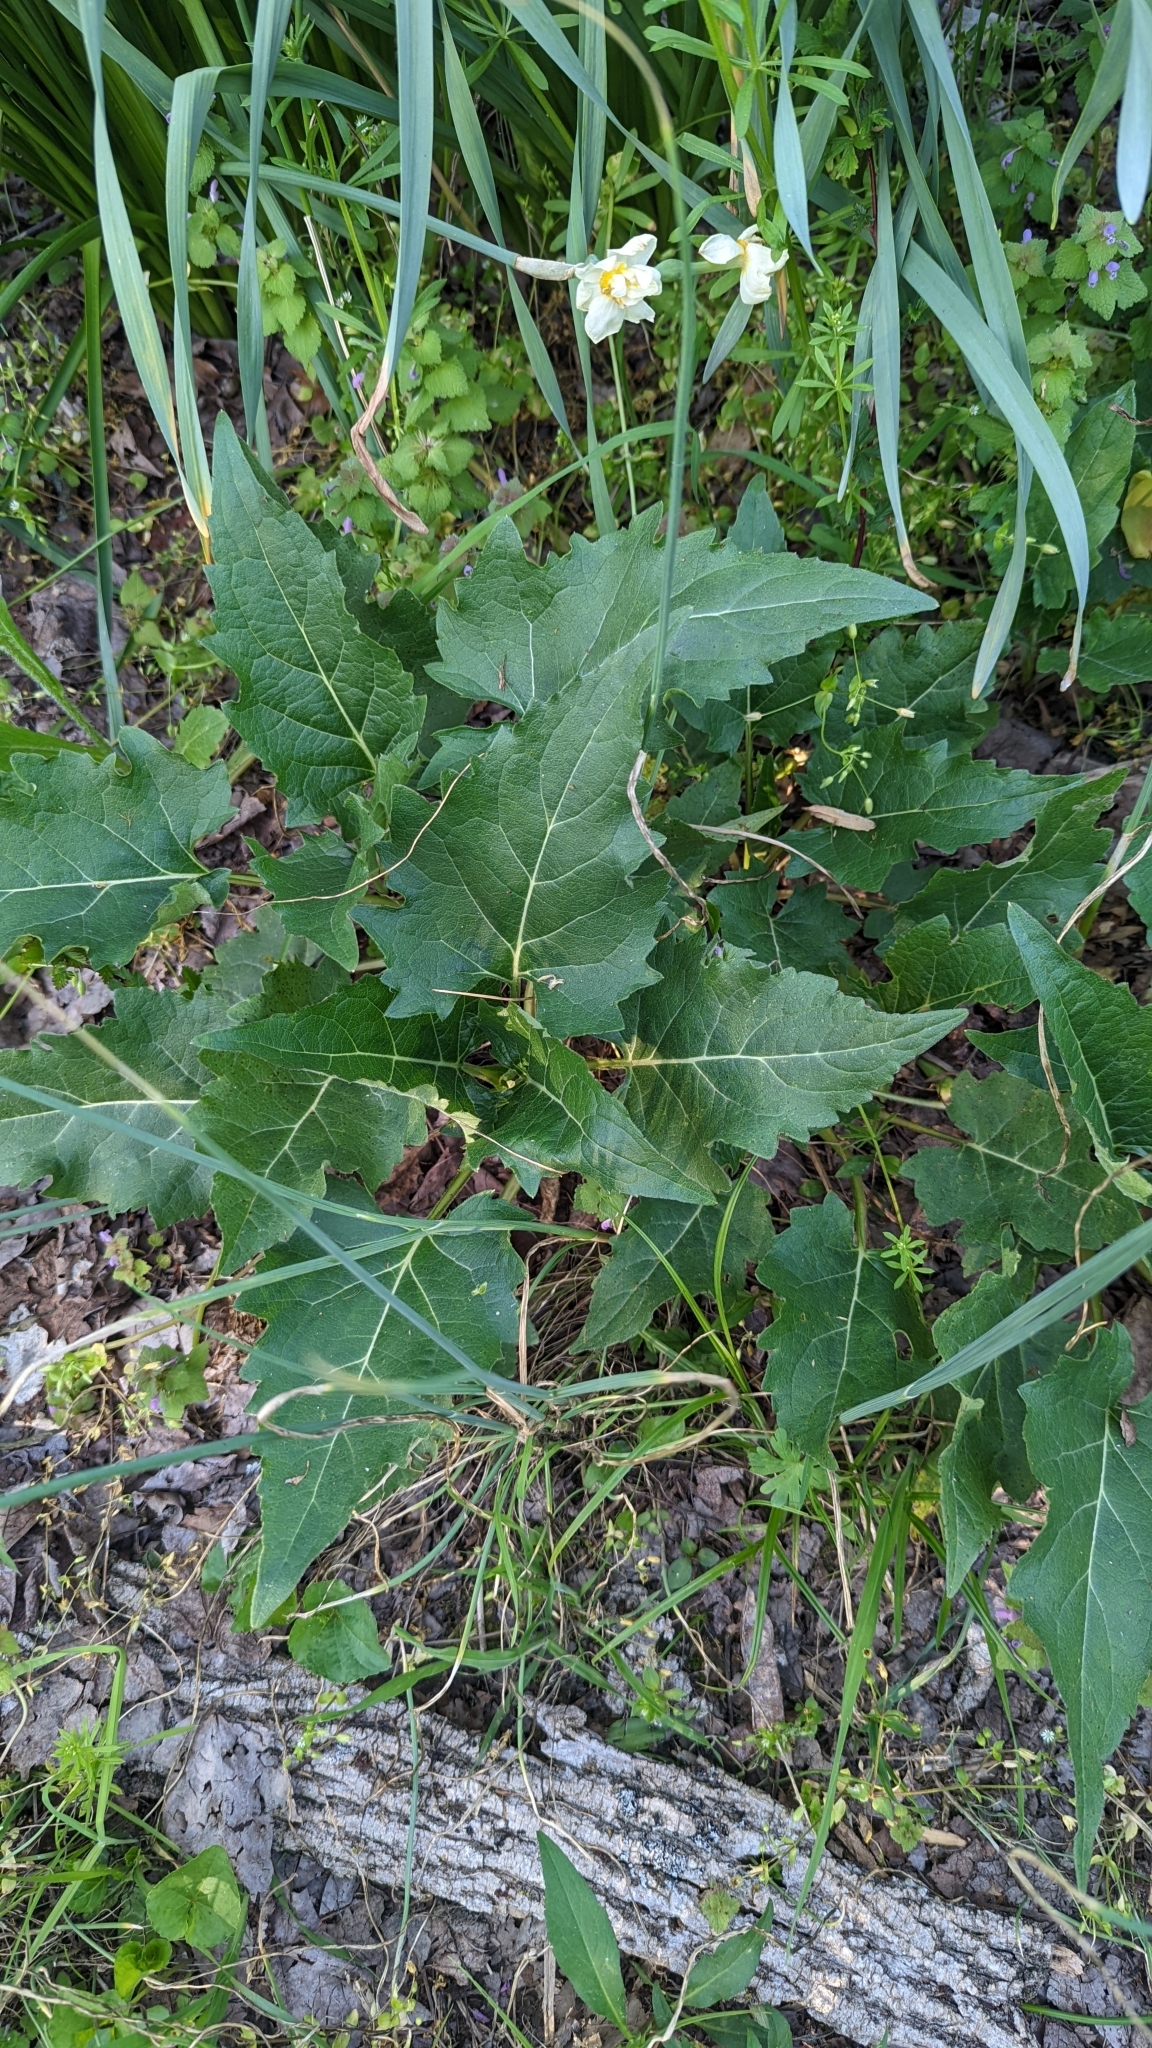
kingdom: Plantae
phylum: Tracheophyta
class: Magnoliopsida
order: Asterales
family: Asteraceae
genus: Silphium
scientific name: Silphium perfoliatum
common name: Cup-plant
